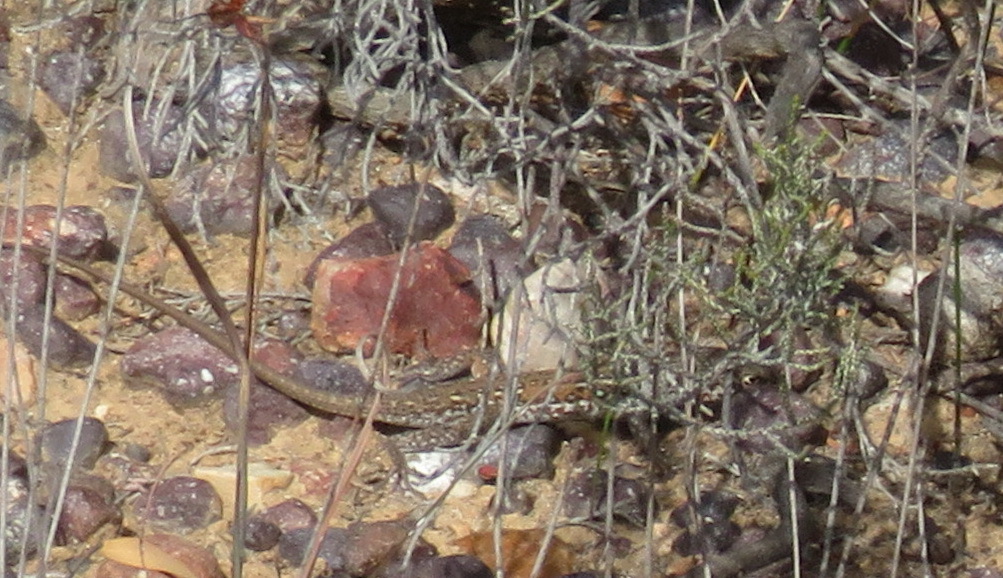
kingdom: Animalia
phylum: Chordata
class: Squamata
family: Lacertidae
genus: Pedioplanis
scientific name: Pedioplanis lineoocellata
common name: Spotted sand lizard
